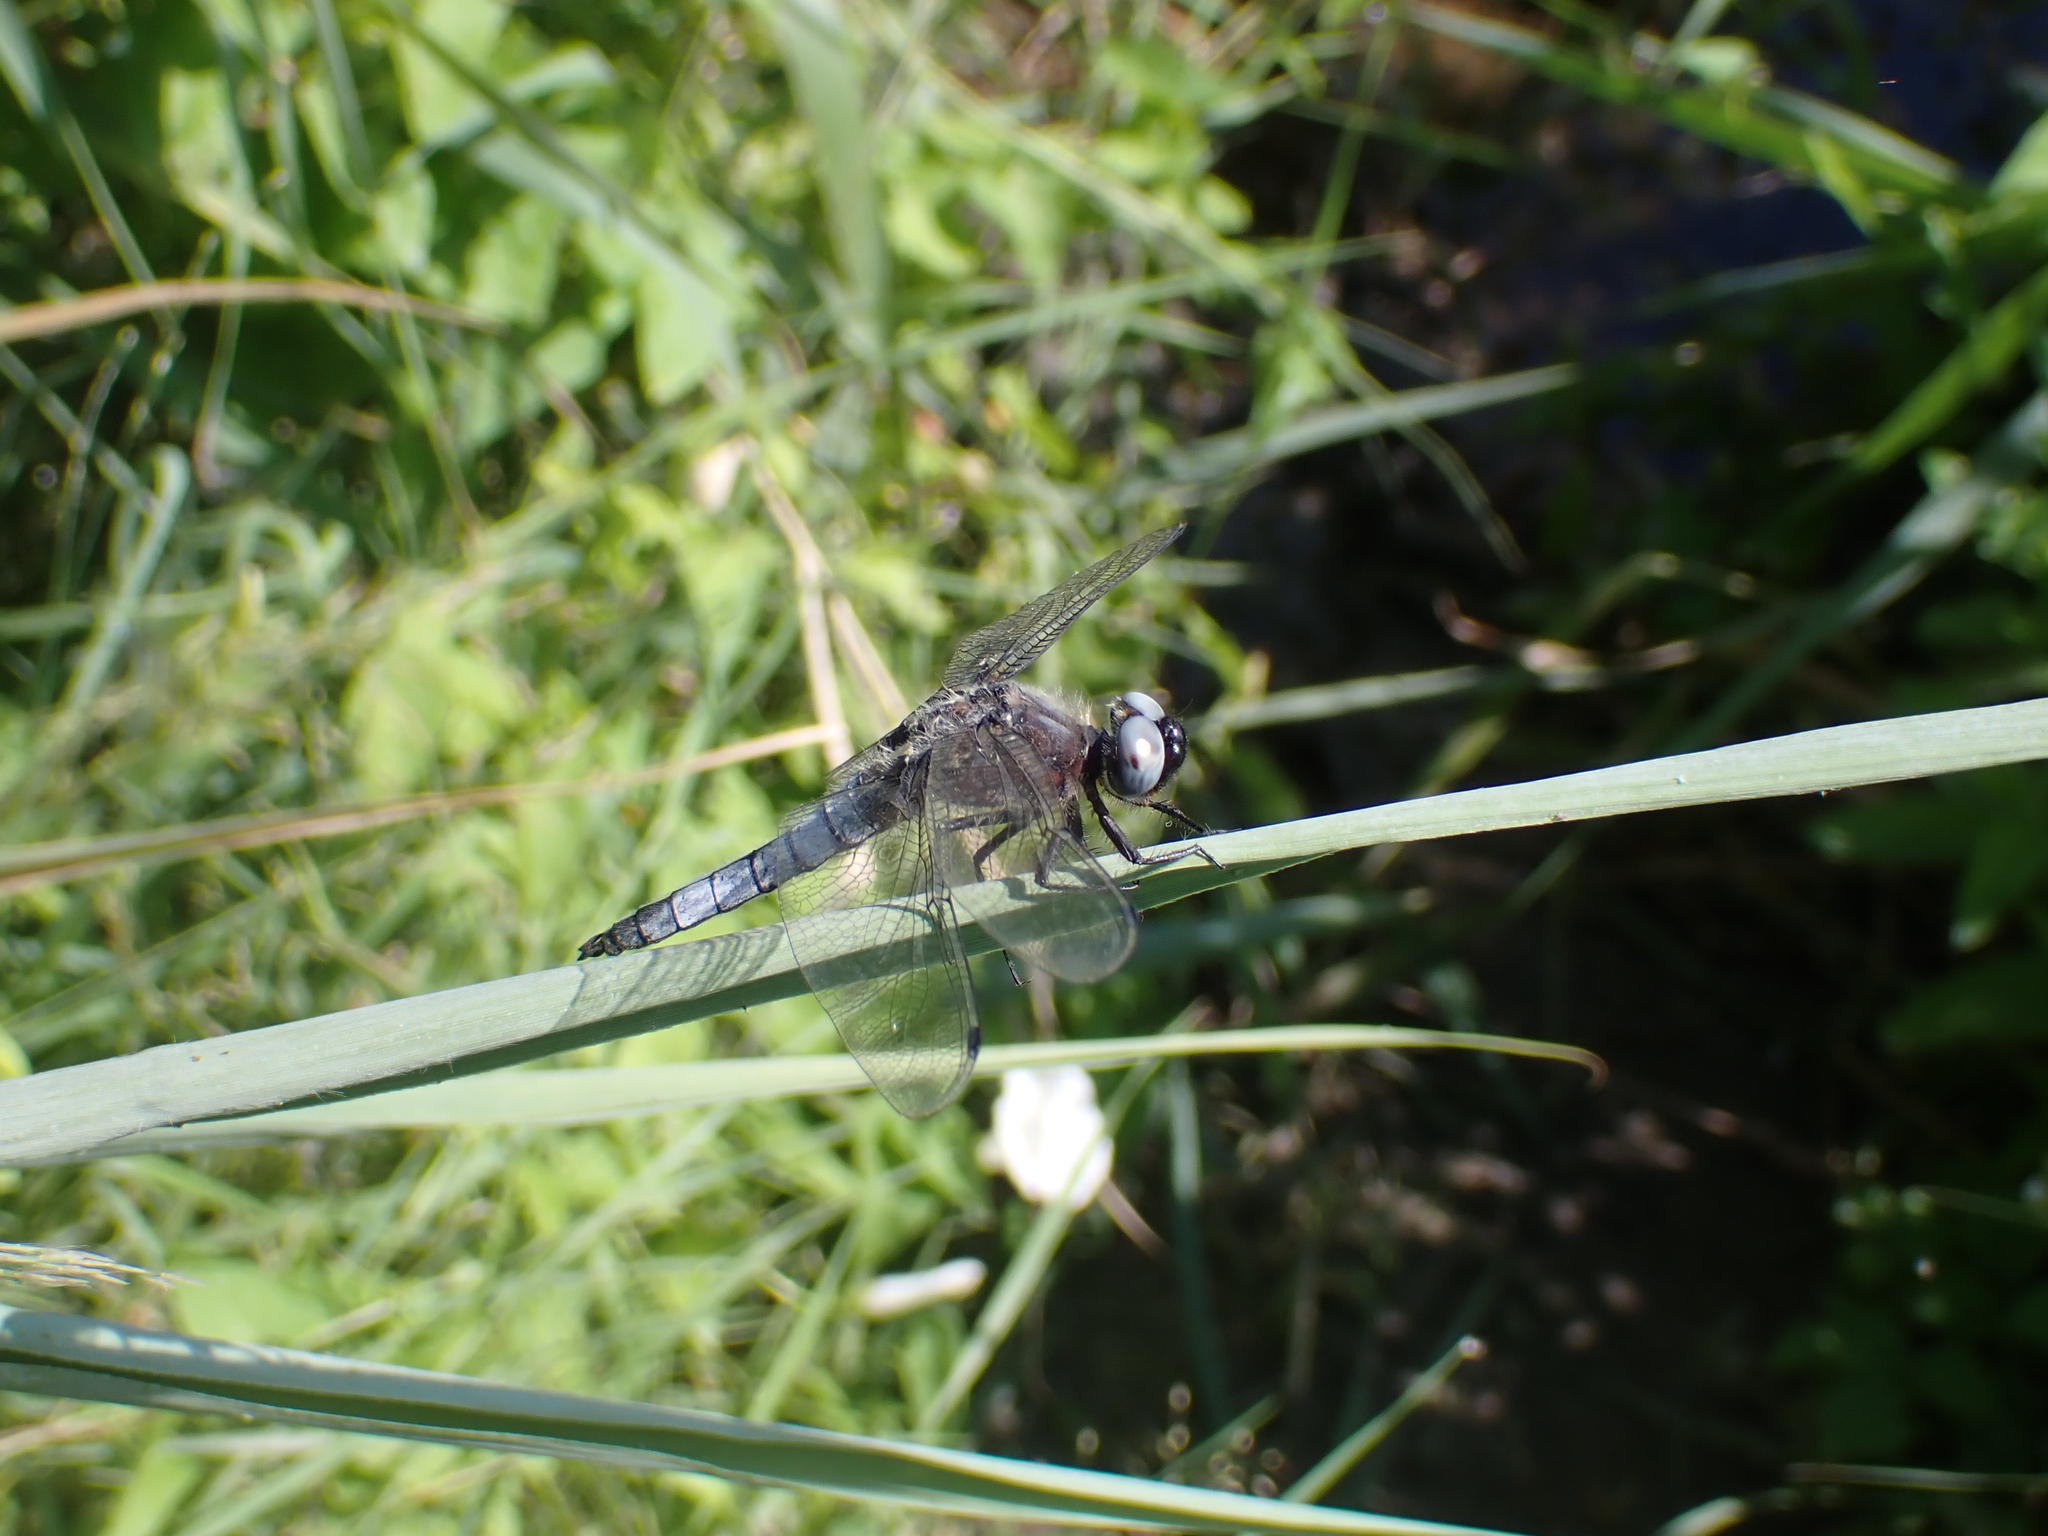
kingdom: Animalia
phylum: Arthropoda
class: Insecta
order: Odonata
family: Libellulidae
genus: Libellula
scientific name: Libellula fulva
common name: Blue chaser
